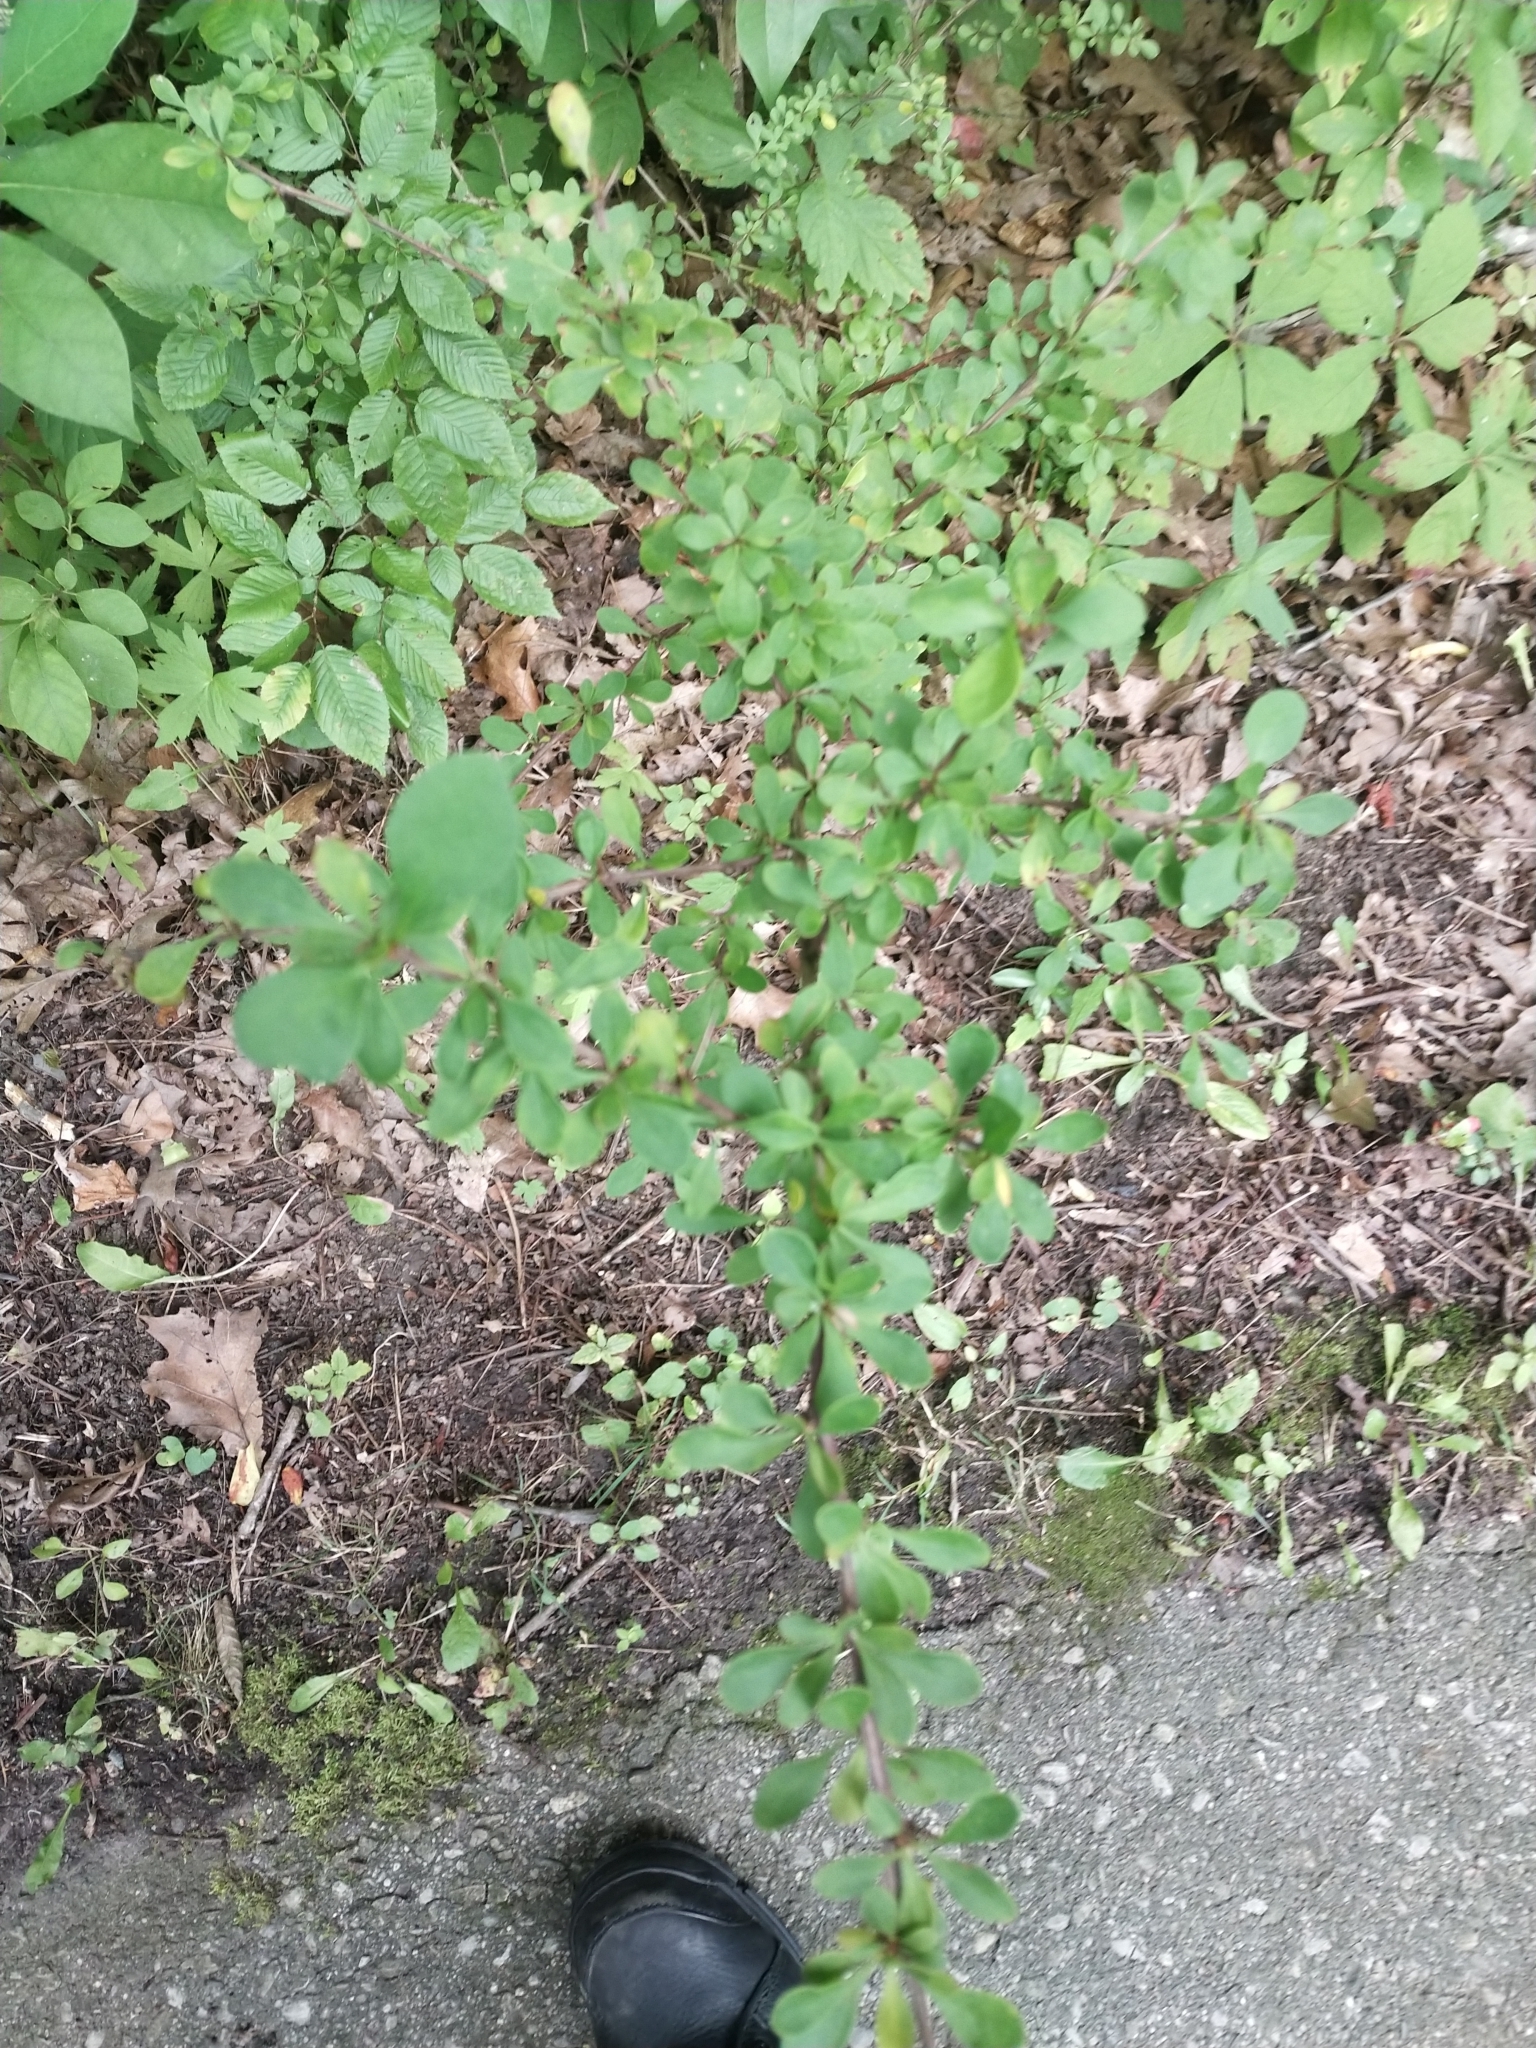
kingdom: Plantae
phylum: Tracheophyta
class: Magnoliopsida
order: Ranunculales
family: Berberidaceae
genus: Berberis
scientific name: Berberis thunbergii
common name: Japanese barberry
